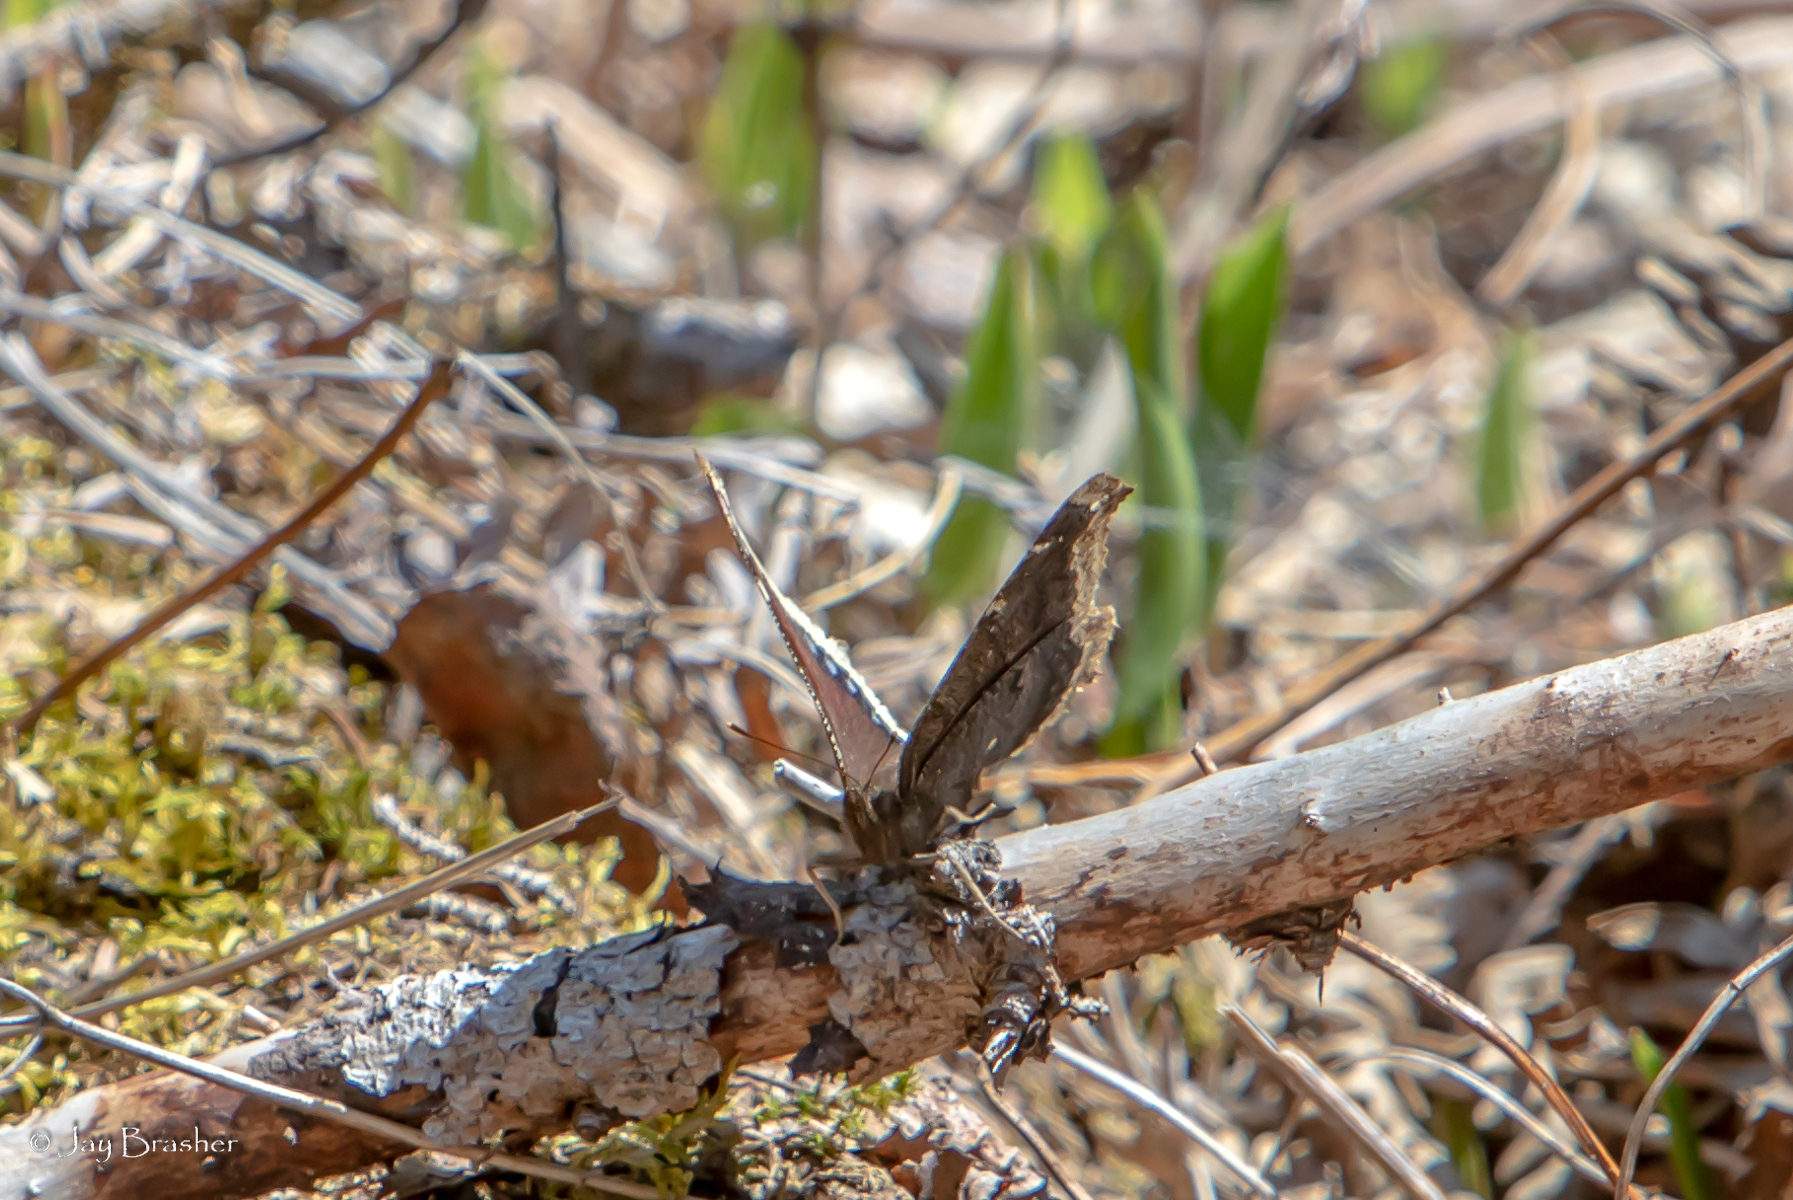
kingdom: Animalia
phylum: Arthropoda
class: Insecta
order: Lepidoptera
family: Nymphalidae
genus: Nymphalis
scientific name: Nymphalis antiopa
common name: Camberwell beauty
